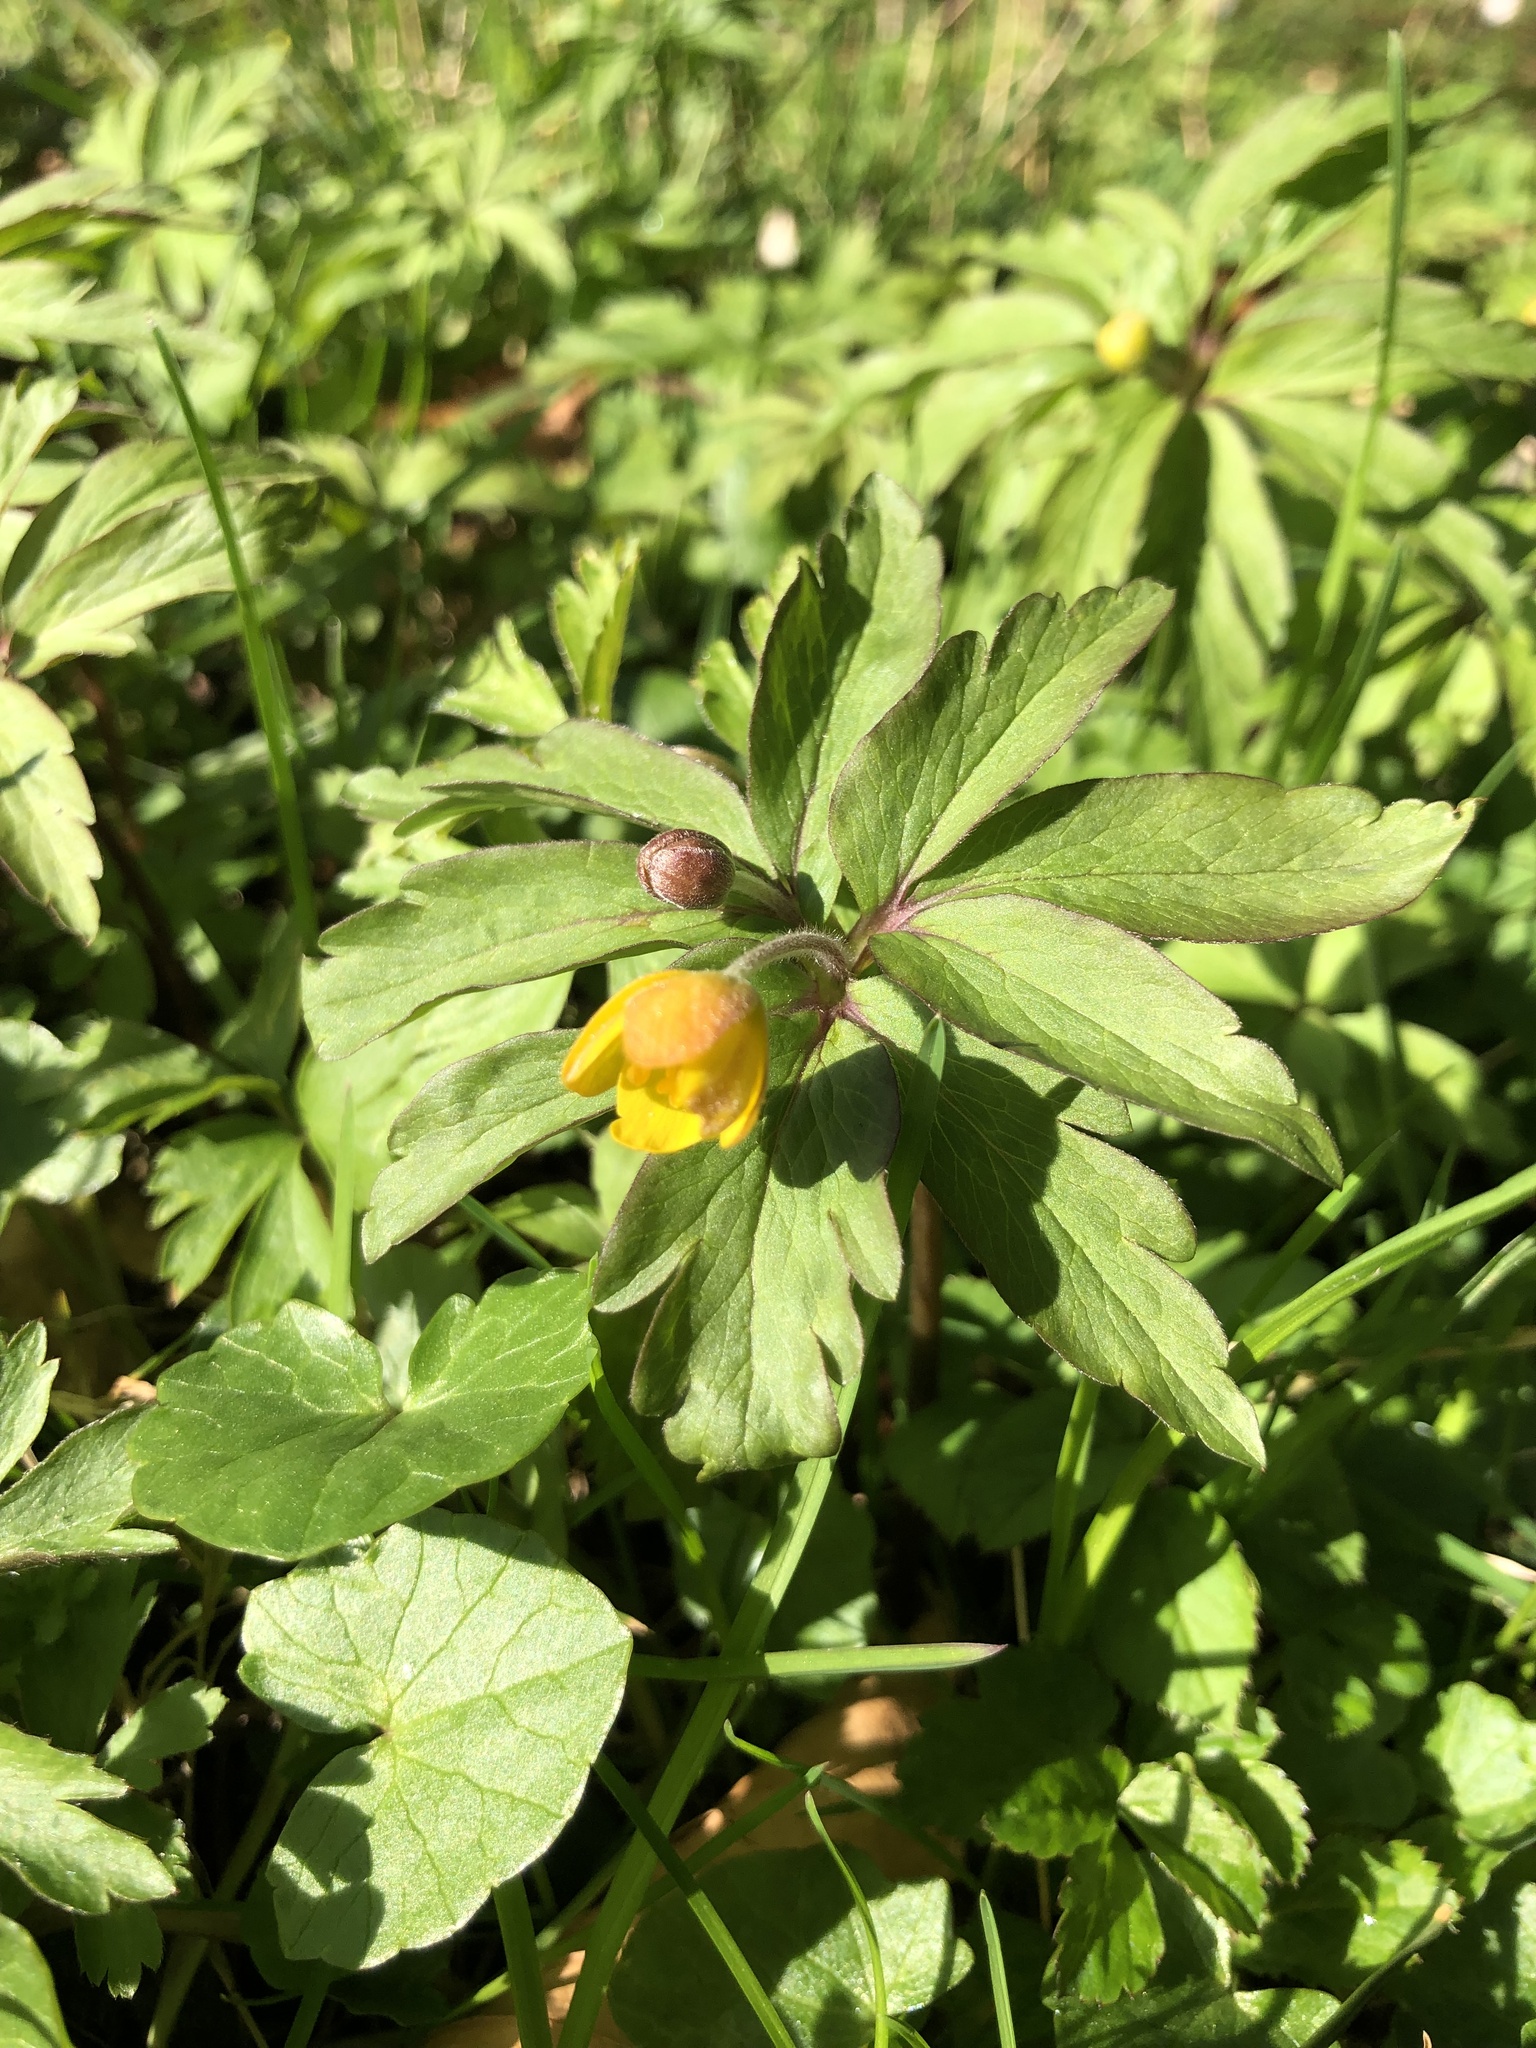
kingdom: Plantae
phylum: Tracheophyta
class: Magnoliopsida
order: Ranunculales
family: Ranunculaceae
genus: Anemone
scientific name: Anemone ranunculoides
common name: Yellow anemone
